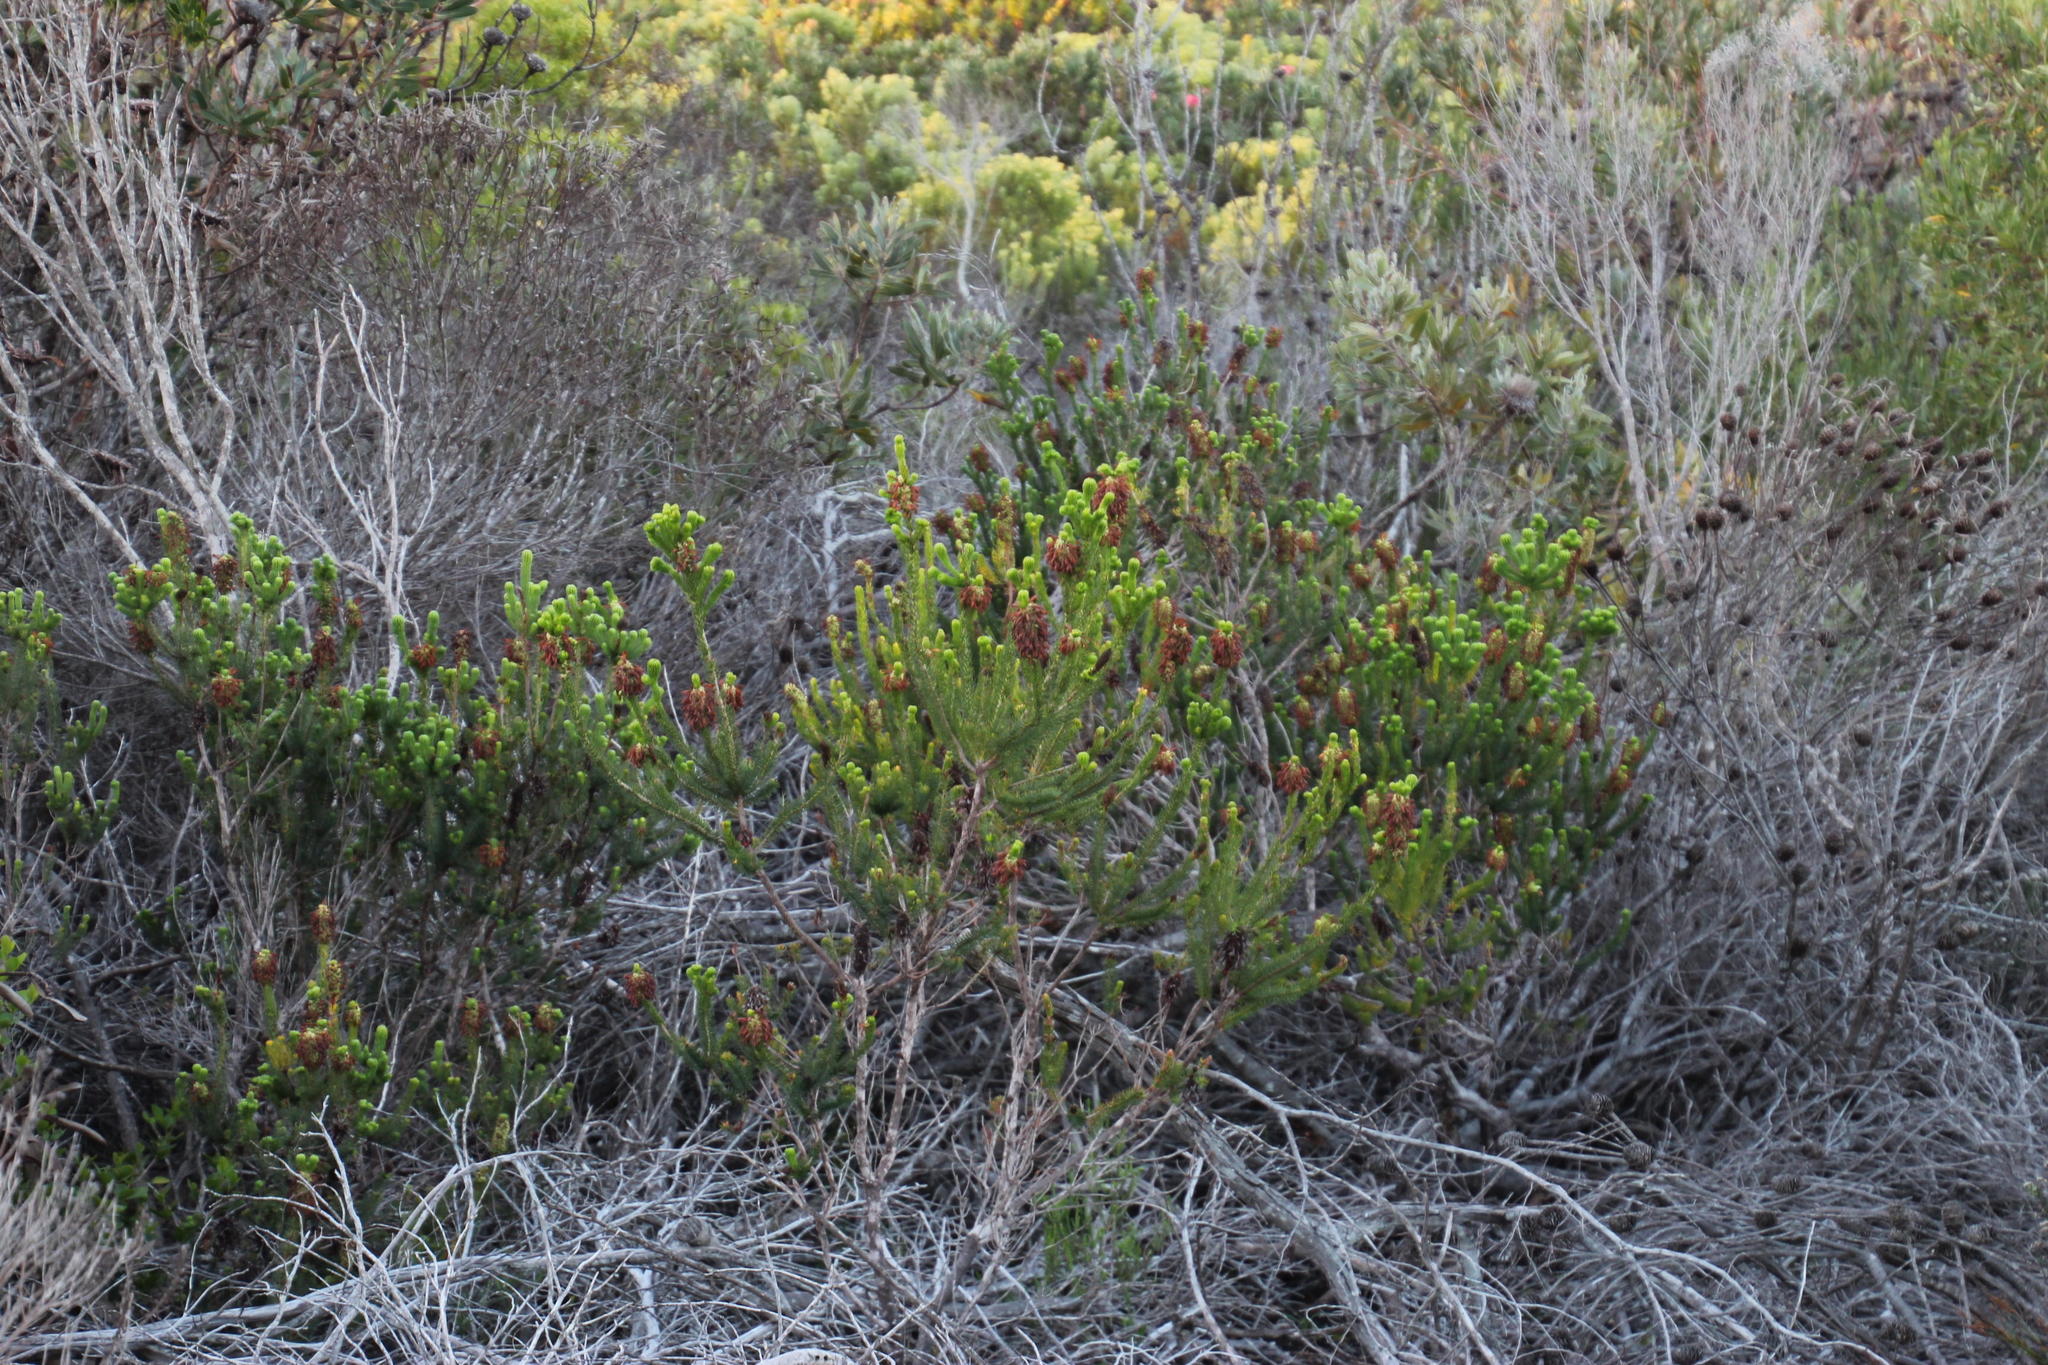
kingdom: Plantae
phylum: Tracheophyta
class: Magnoliopsida
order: Ericales
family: Ericaceae
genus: Erica
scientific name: Erica sessiliflora
